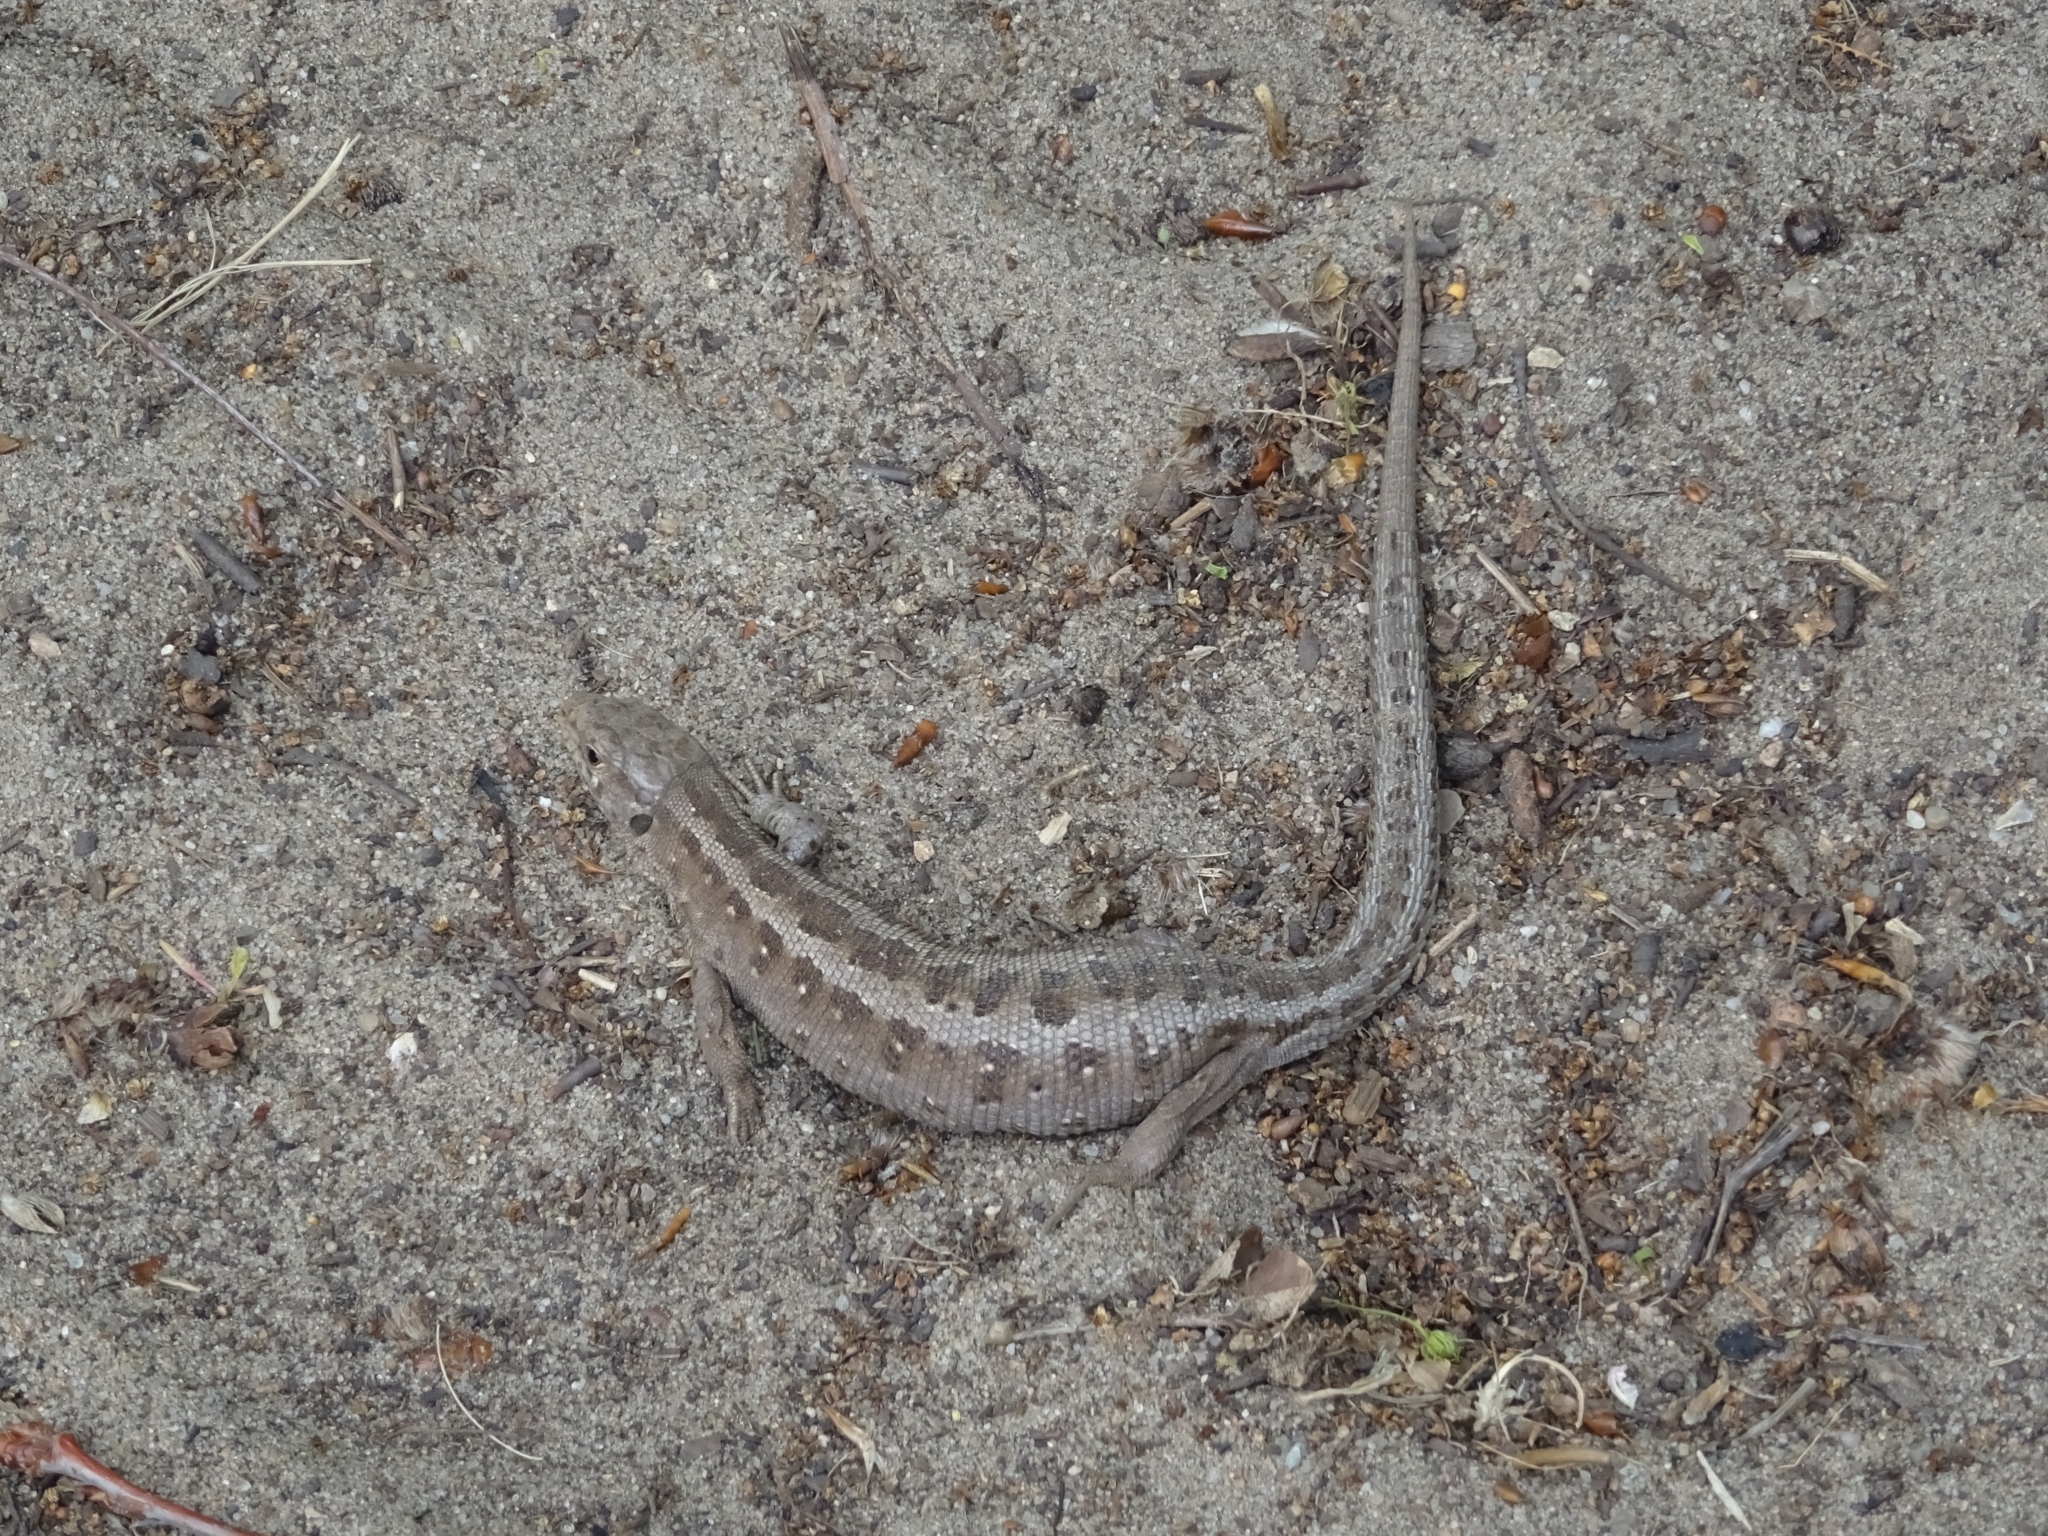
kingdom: Animalia
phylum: Chordata
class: Squamata
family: Lacertidae
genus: Lacerta
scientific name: Lacerta agilis
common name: Sand lizard
